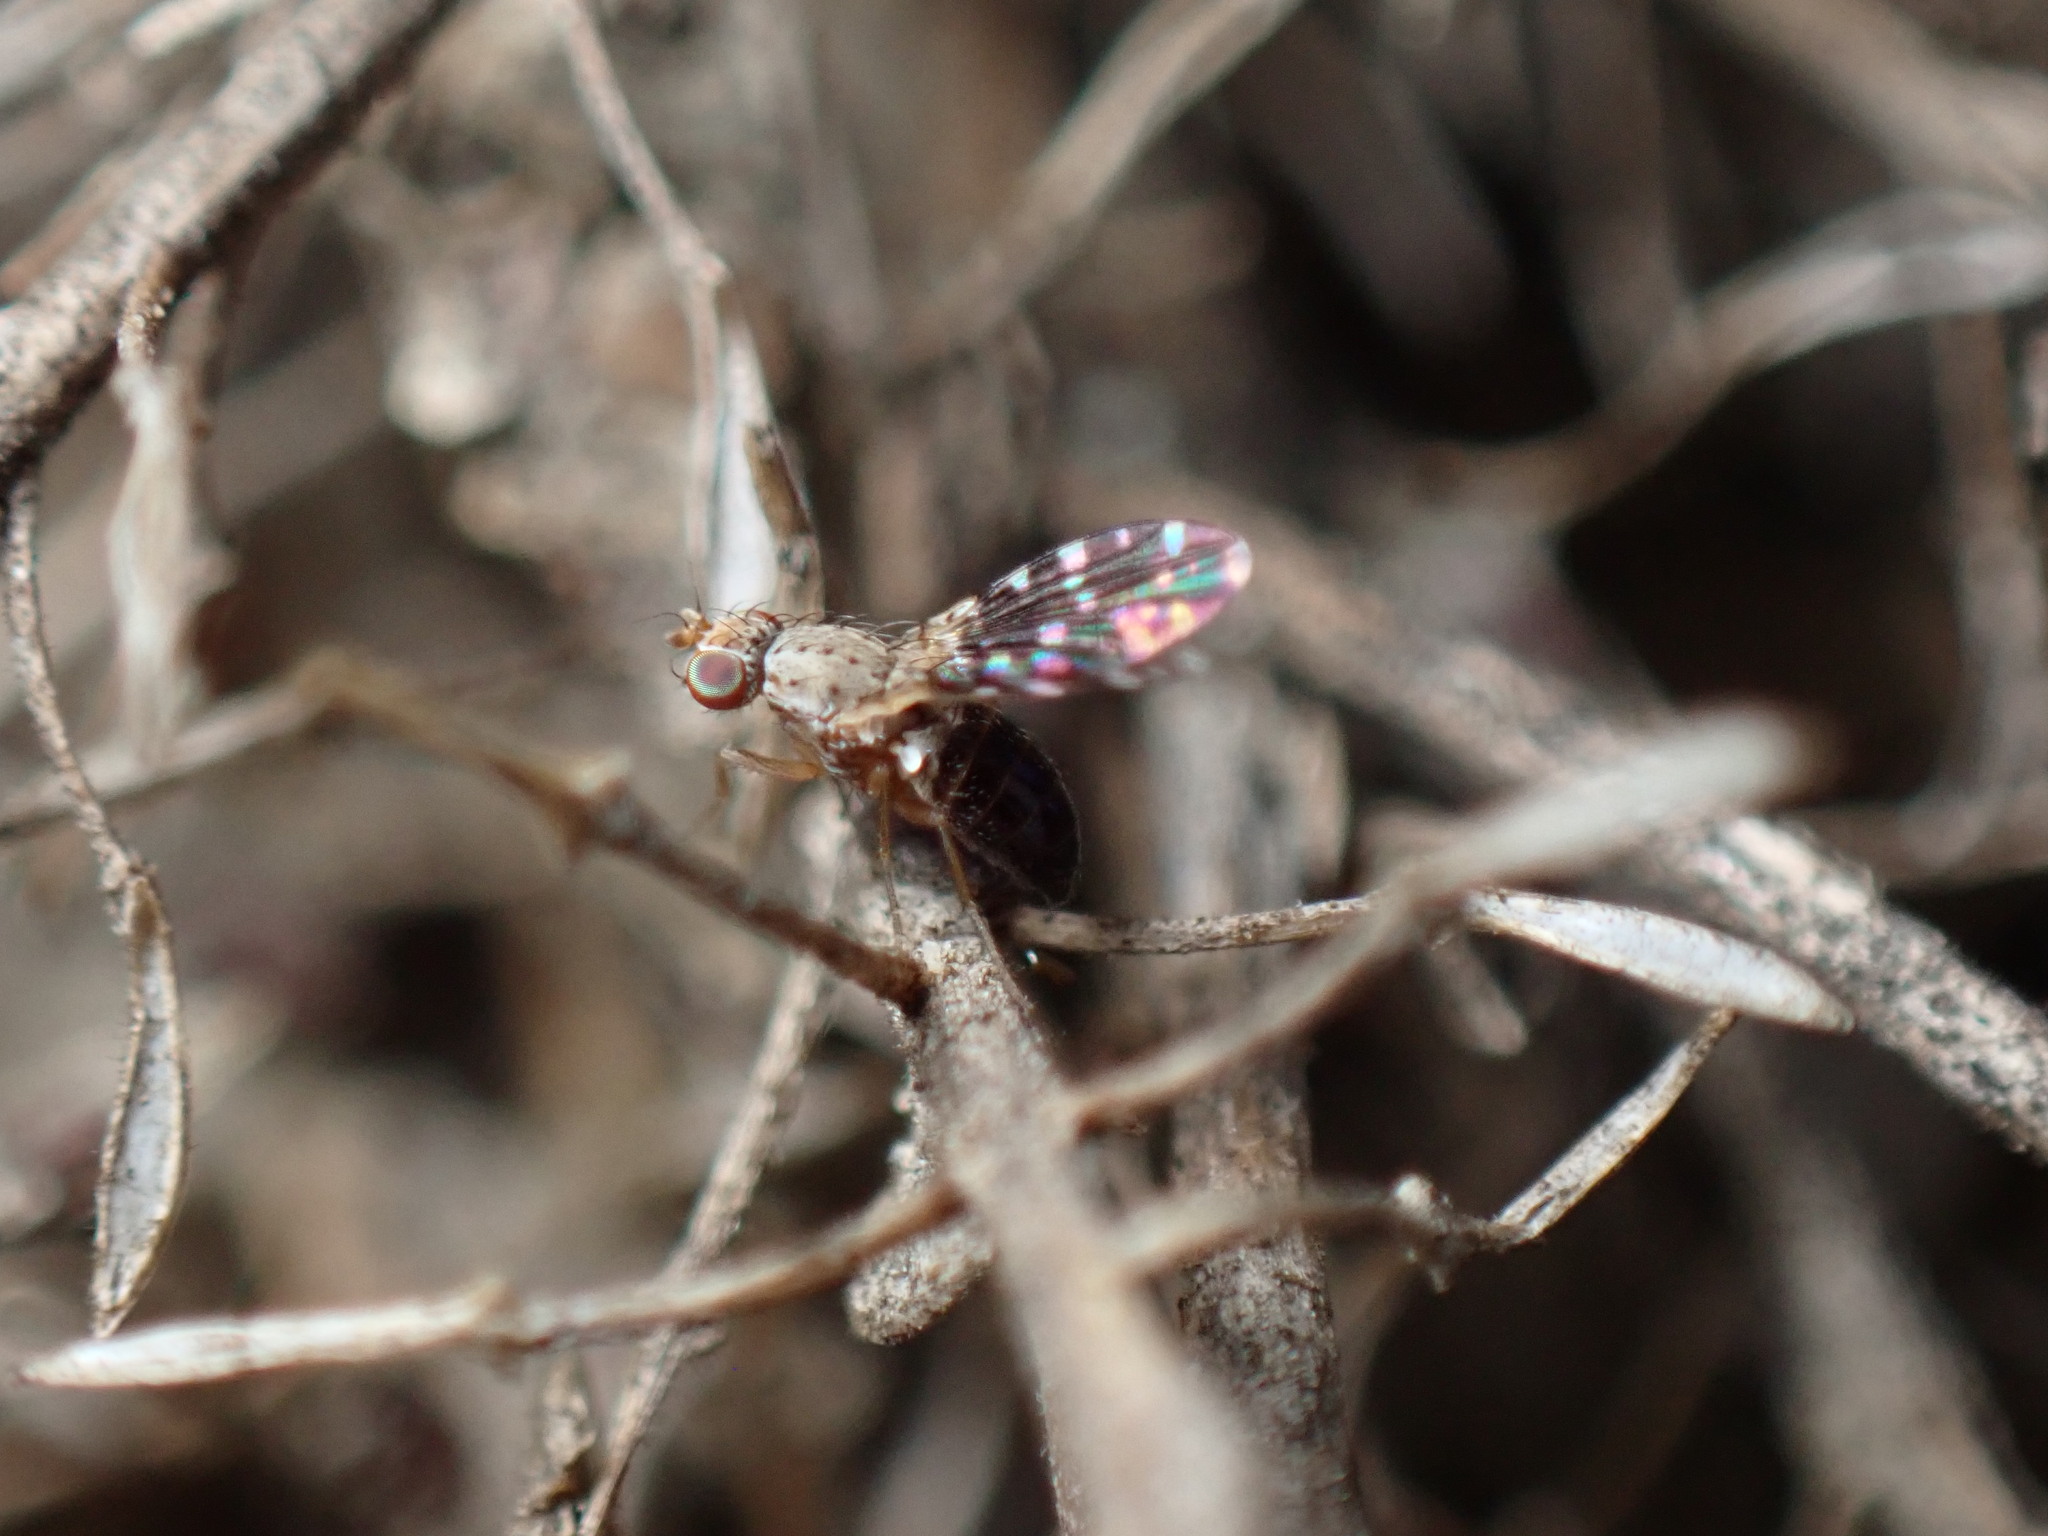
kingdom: Animalia
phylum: Arthropoda
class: Insecta
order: Diptera
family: Heleomyzidae
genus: Trixoscelis
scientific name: Trixoscelis polita
